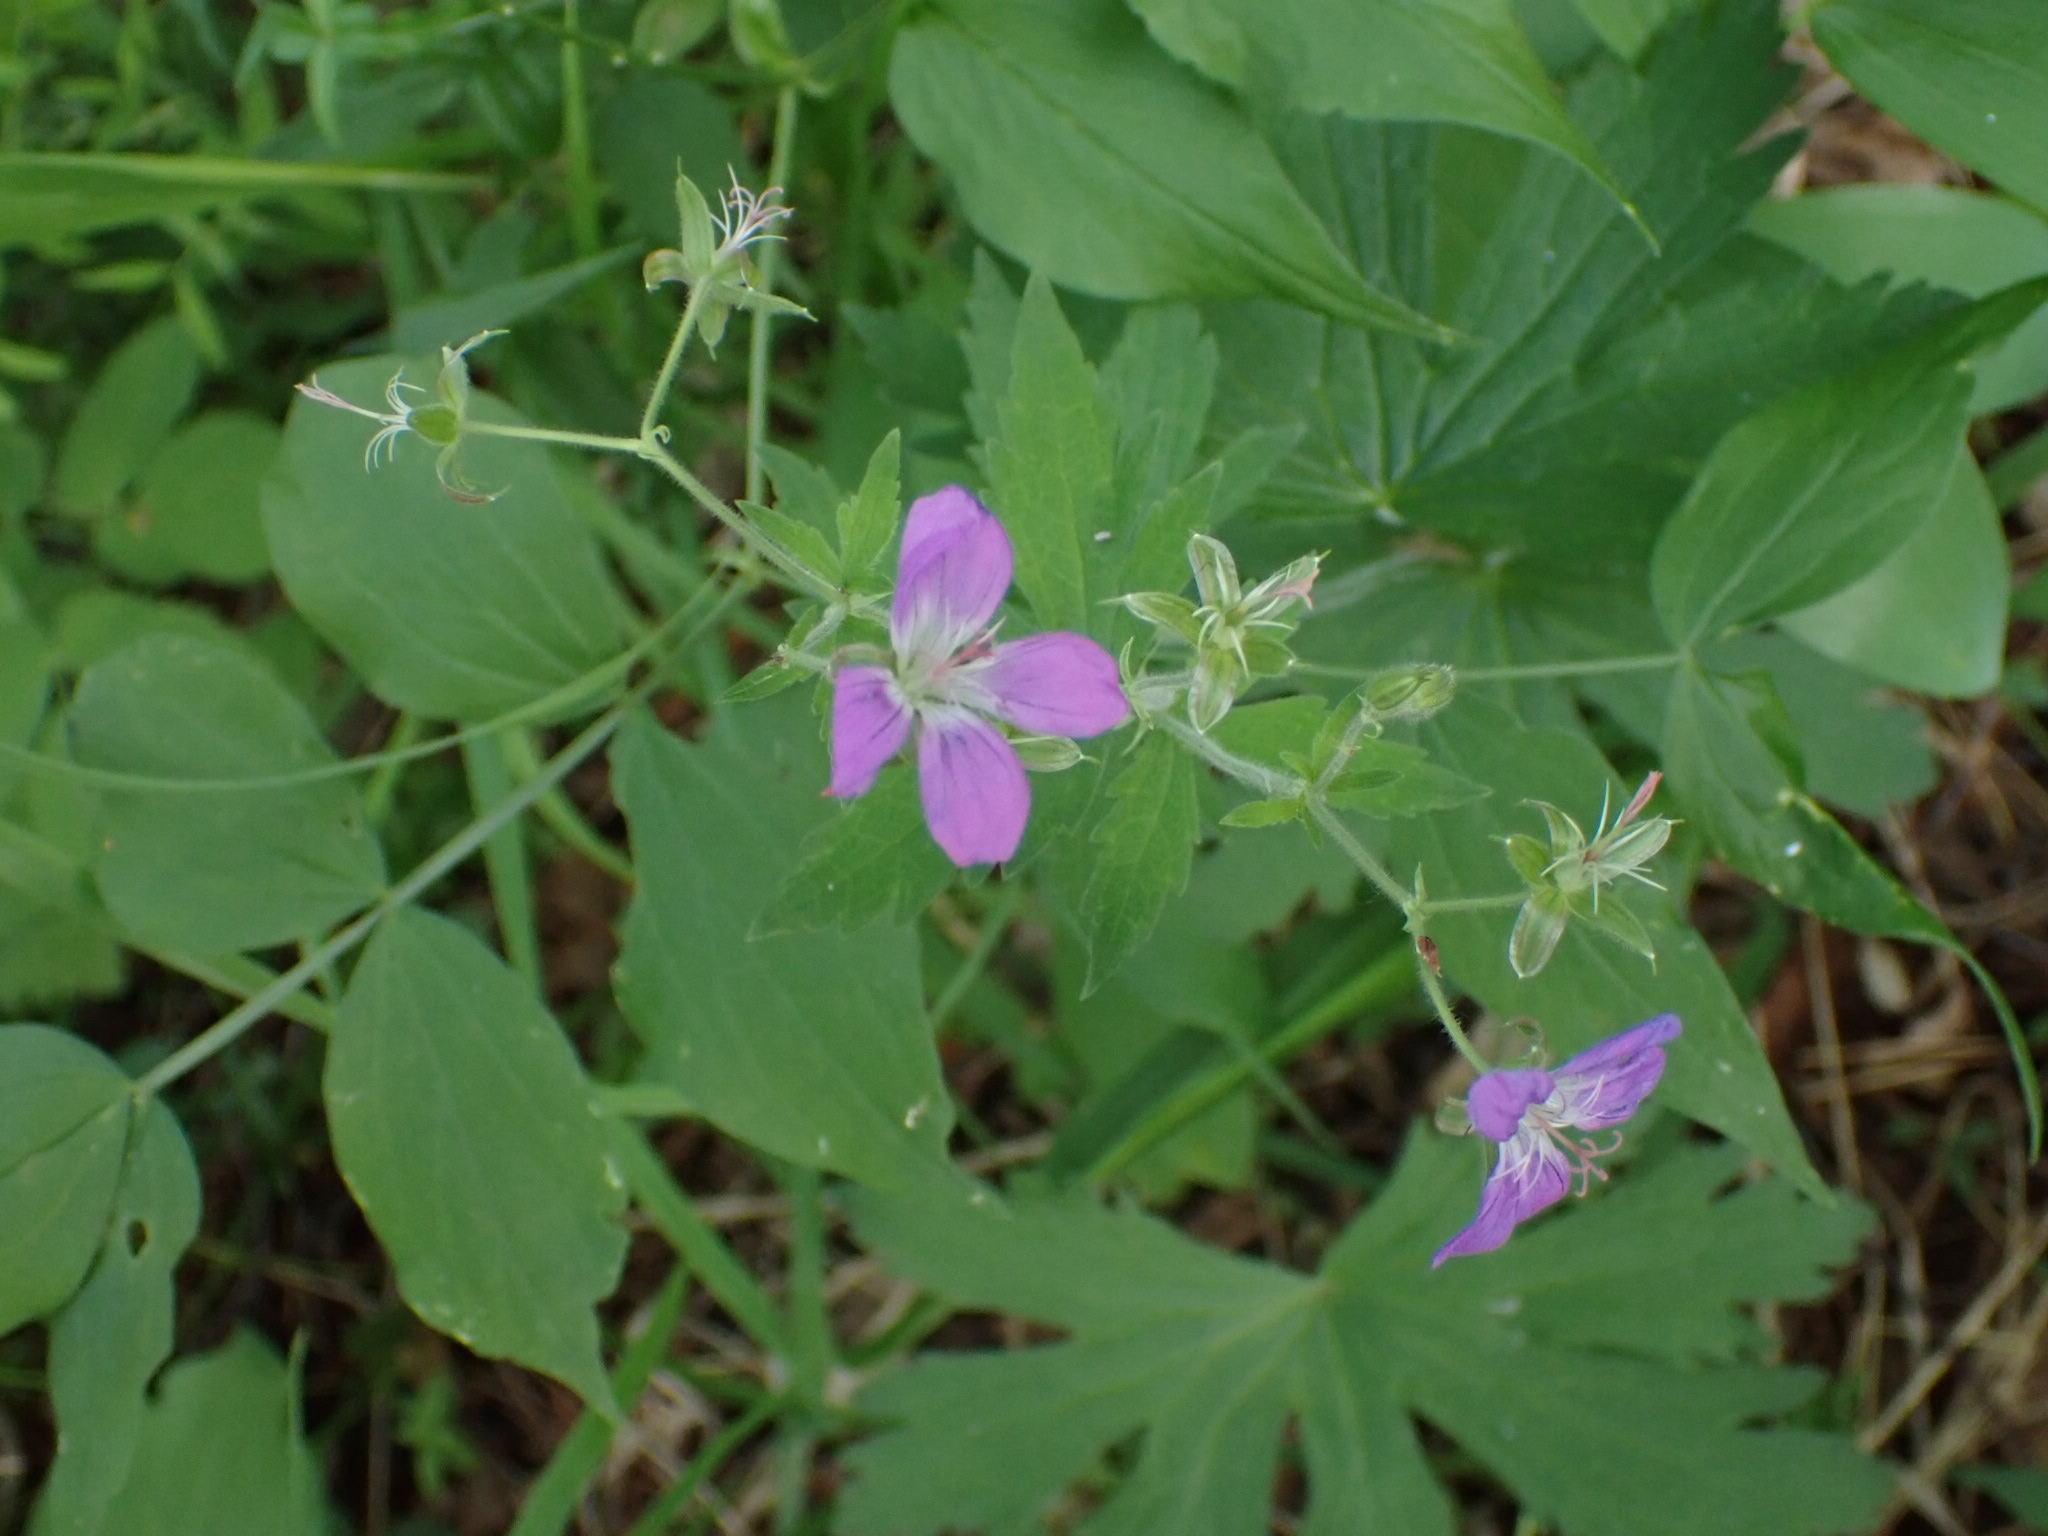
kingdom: Plantae
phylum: Tracheophyta
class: Magnoliopsida
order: Geraniales
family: Geraniaceae
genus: Geranium
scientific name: Geranium sylvaticum
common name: Wood crane's-bill
